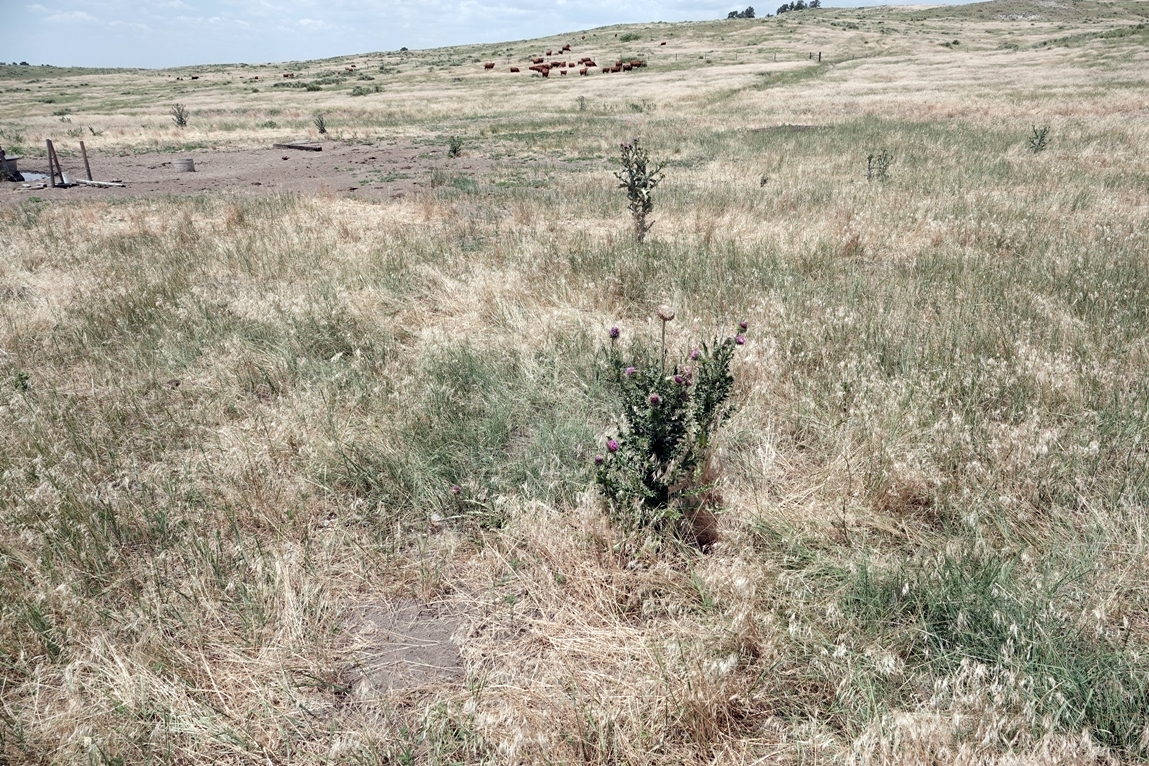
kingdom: Plantae
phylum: Tracheophyta
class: Magnoliopsida
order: Asterales
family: Asteraceae
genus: Carduus
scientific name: Carduus nutans
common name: Musk thistle
